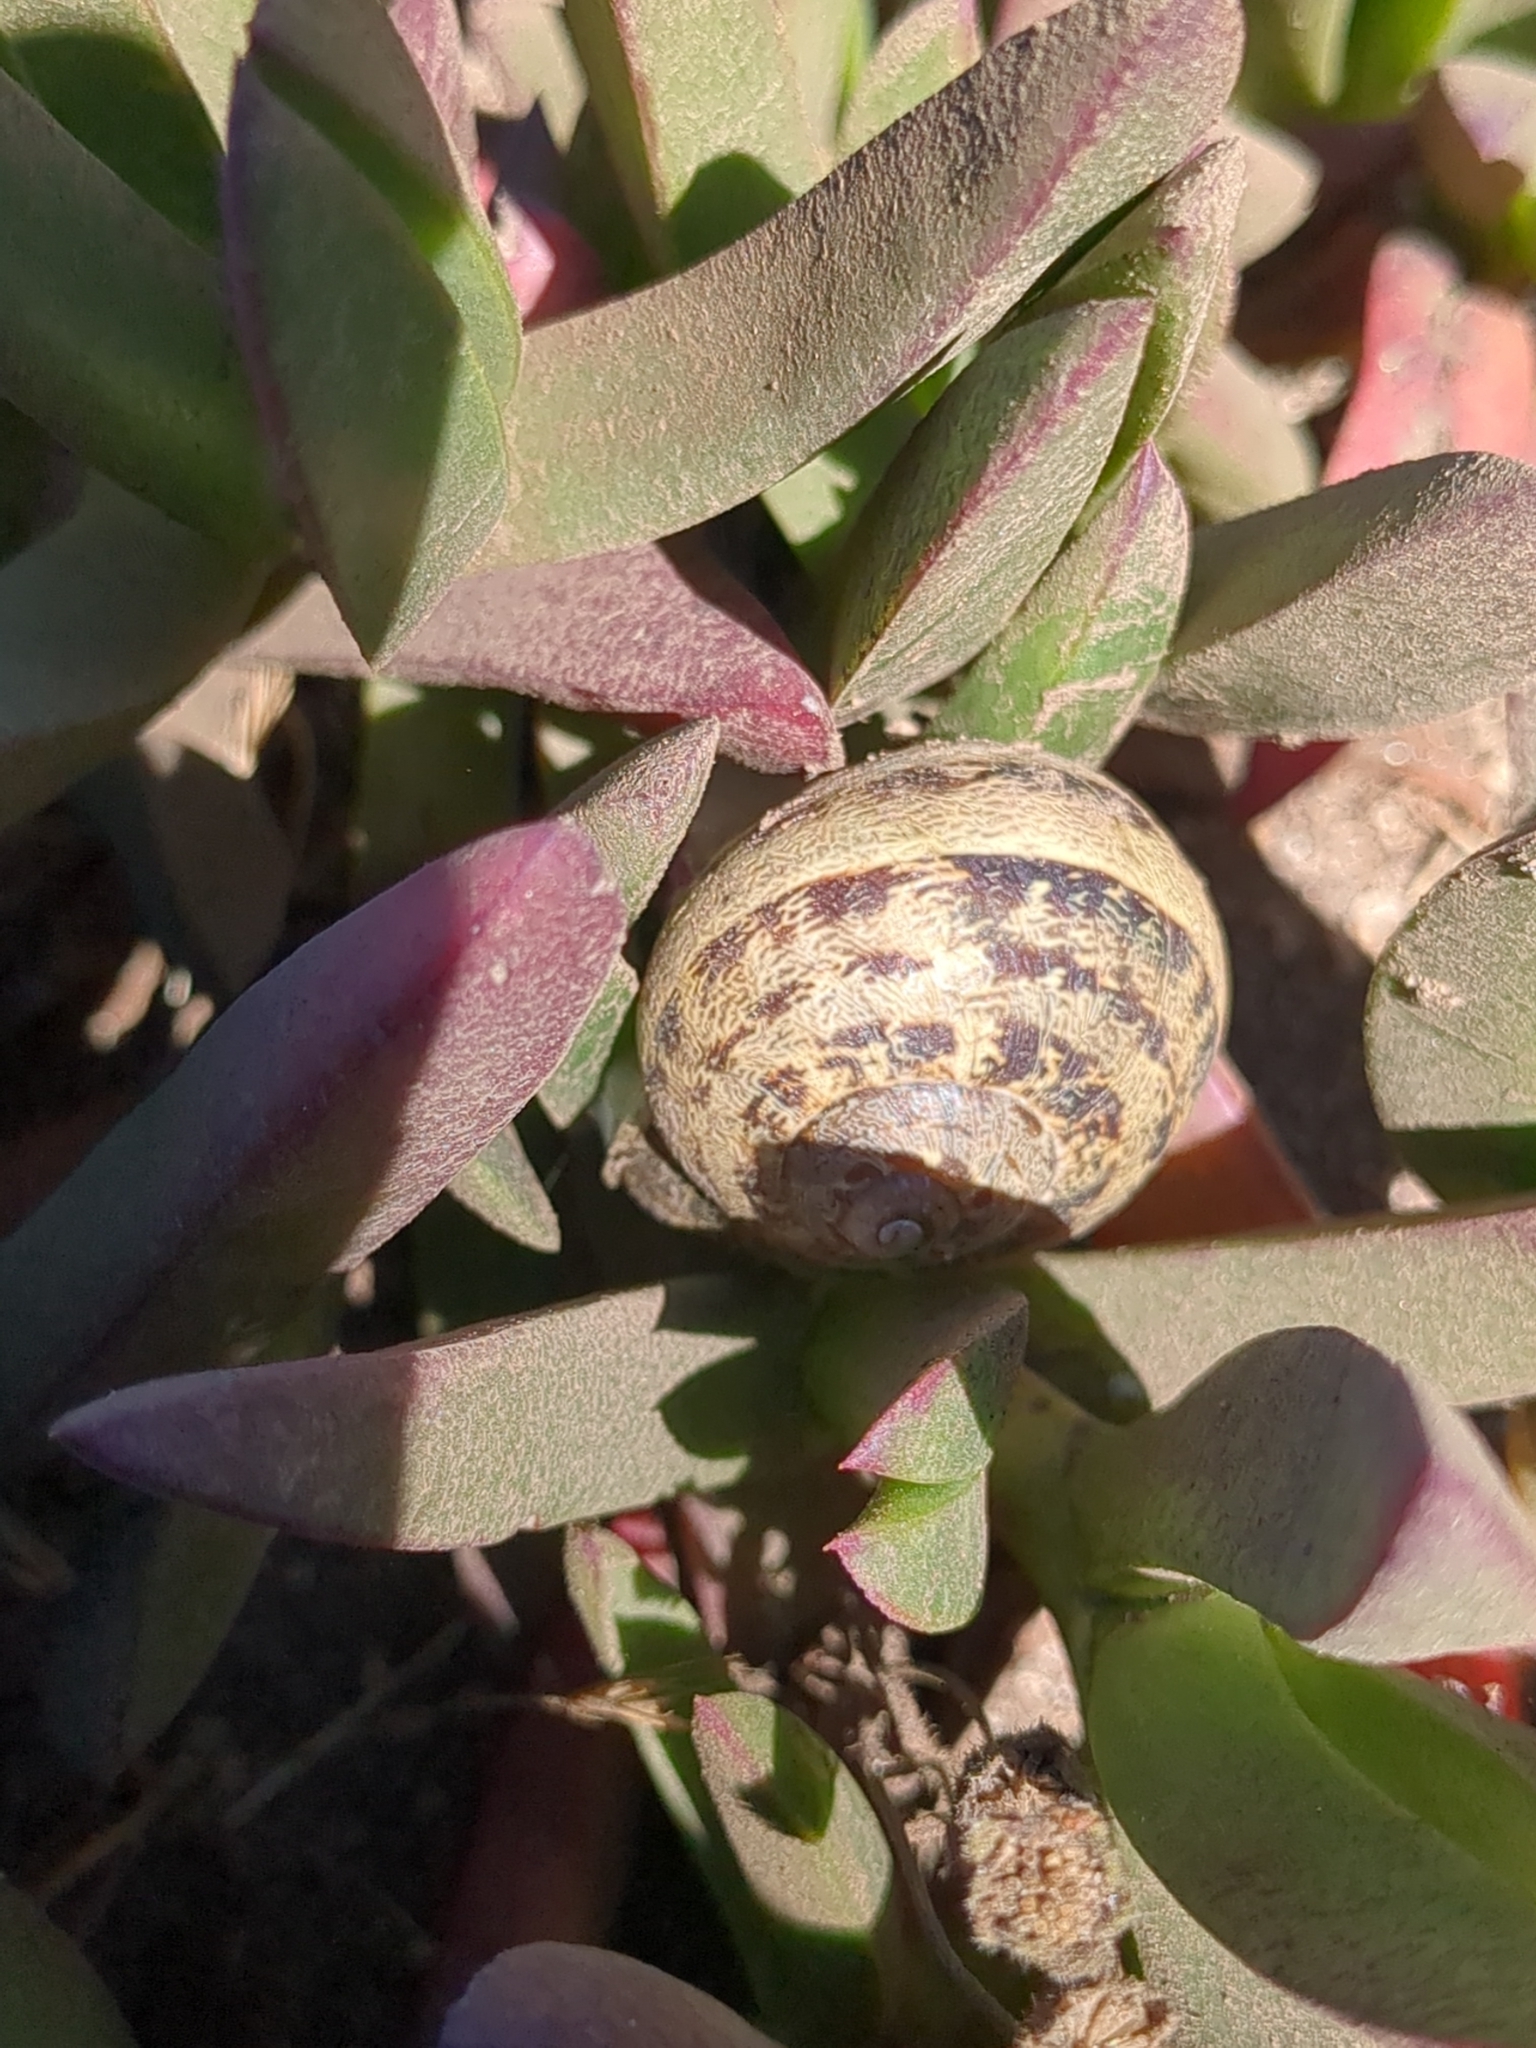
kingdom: Animalia
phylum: Mollusca
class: Gastropoda
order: Stylommatophora
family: Helicidae
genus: Cornu
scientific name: Cornu aspersum
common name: Brown garden snail
